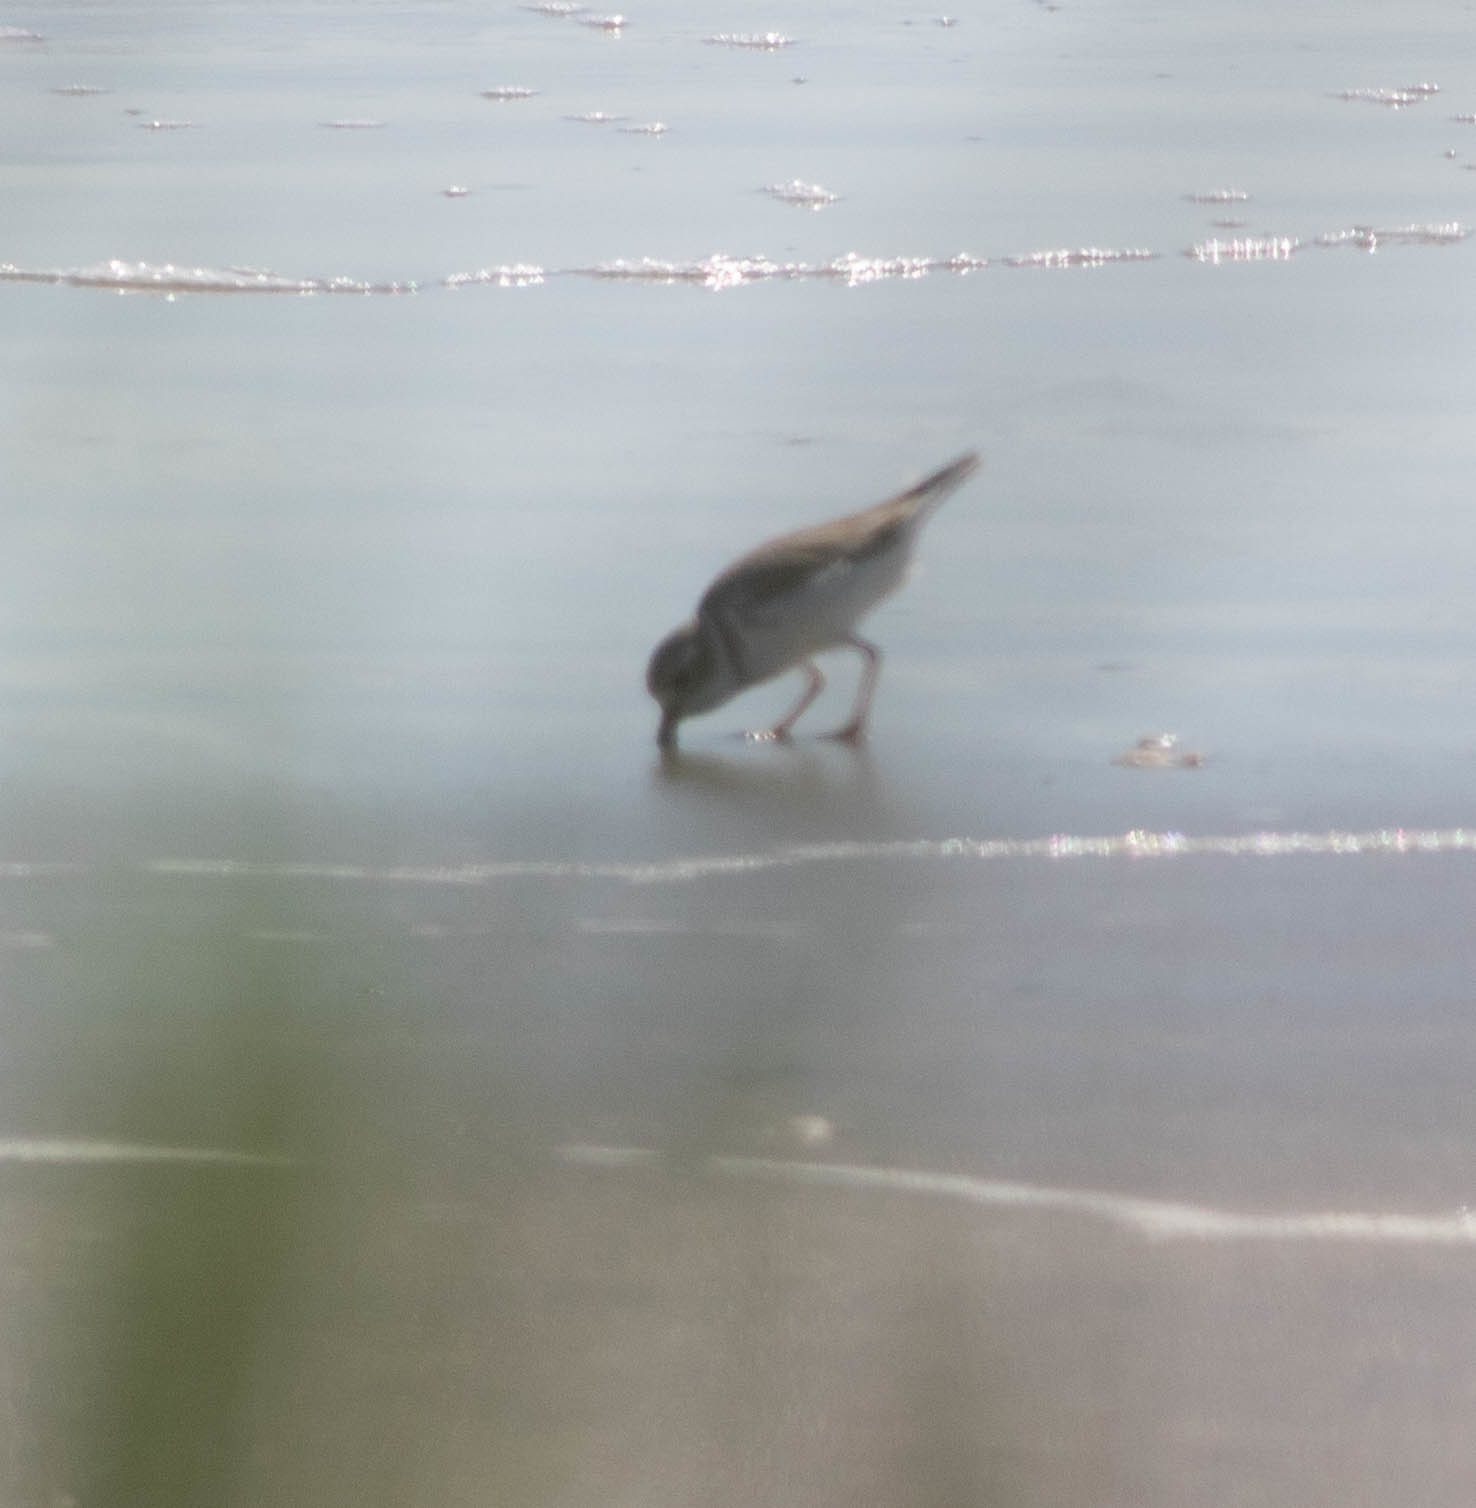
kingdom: Animalia
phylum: Chordata
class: Aves
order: Charadriiformes
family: Charadriidae
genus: Charadrius
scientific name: Charadrius melodus
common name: Piping plover
